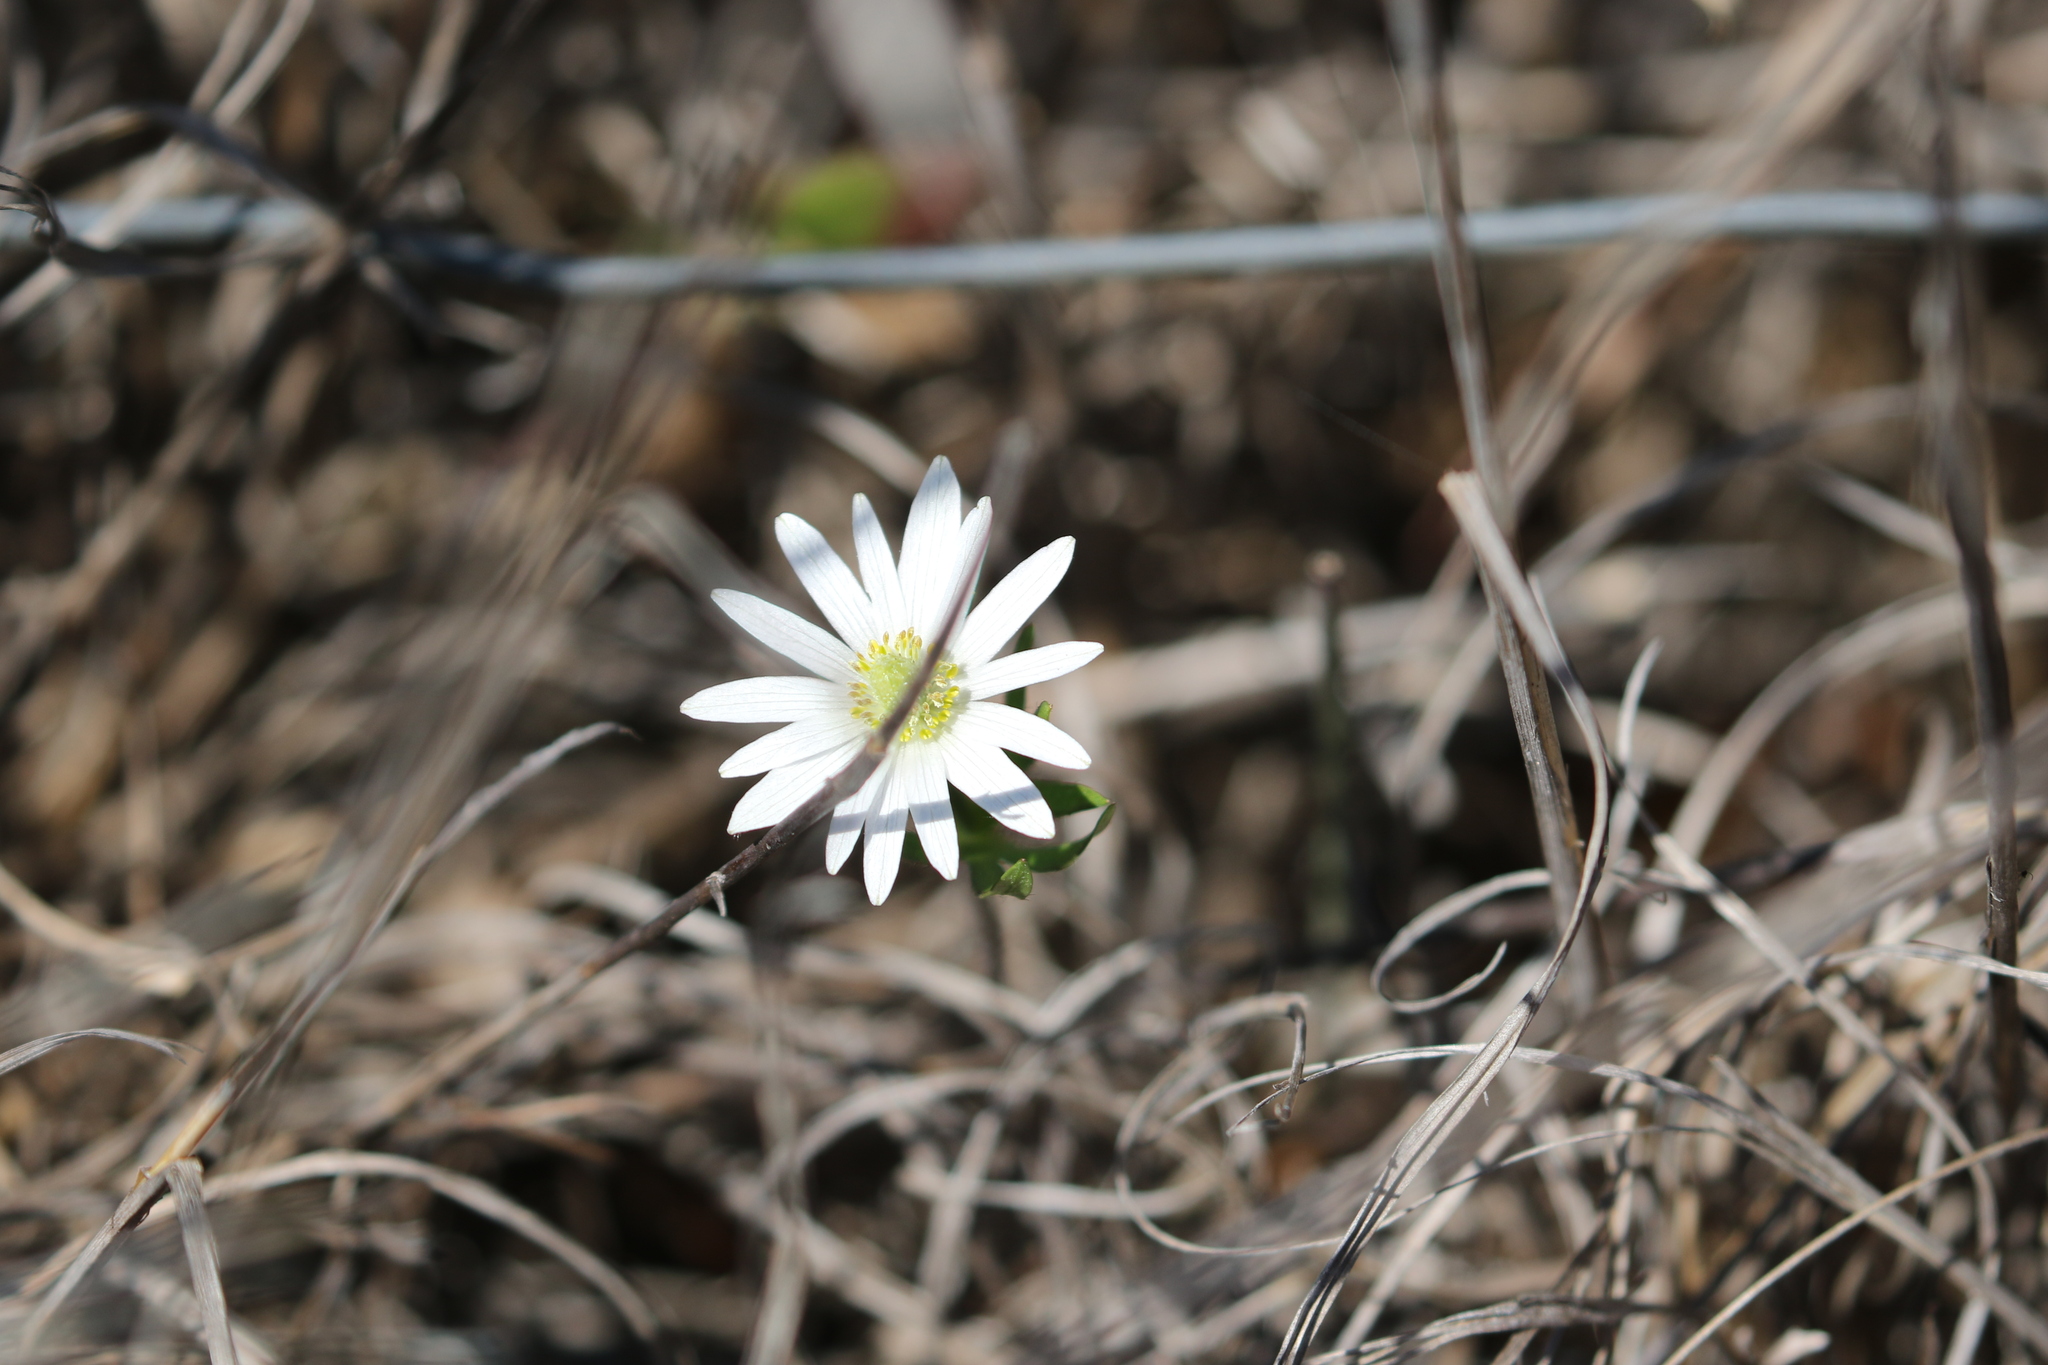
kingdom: Plantae
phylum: Tracheophyta
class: Magnoliopsida
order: Ranunculales
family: Ranunculaceae
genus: Anemone
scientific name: Anemone berlandieri
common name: Ten-petal anemone
